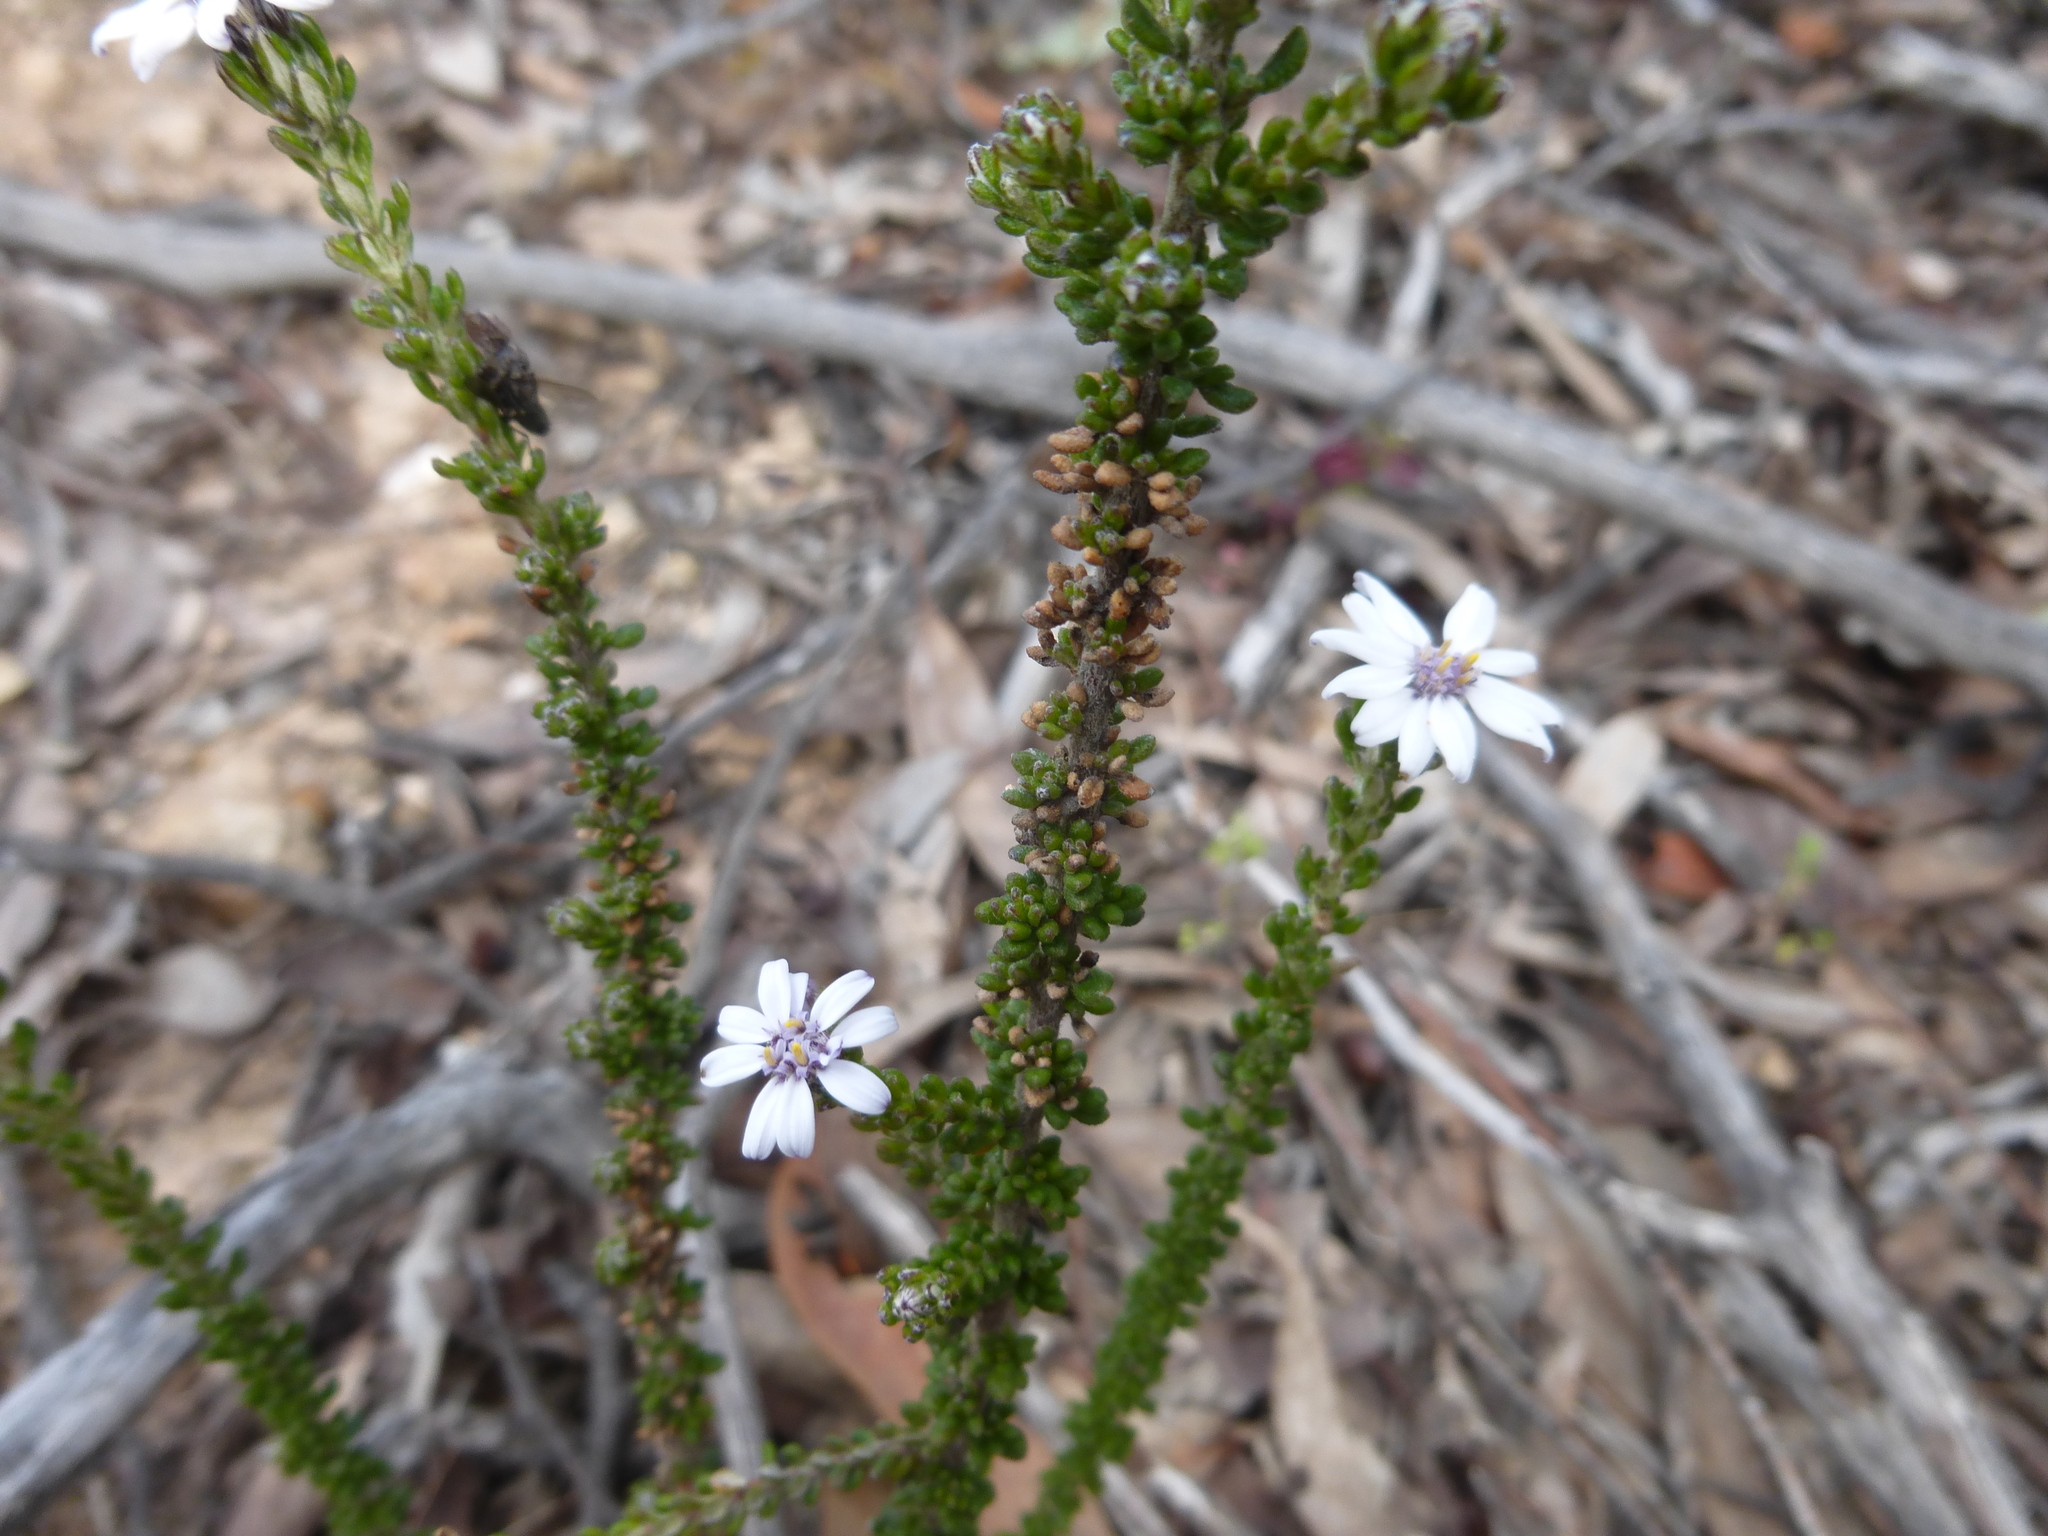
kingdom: Plantae
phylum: Tracheophyta
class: Magnoliopsida
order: Asterales
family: Asteraceae
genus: Olearia
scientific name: Olearia minor
